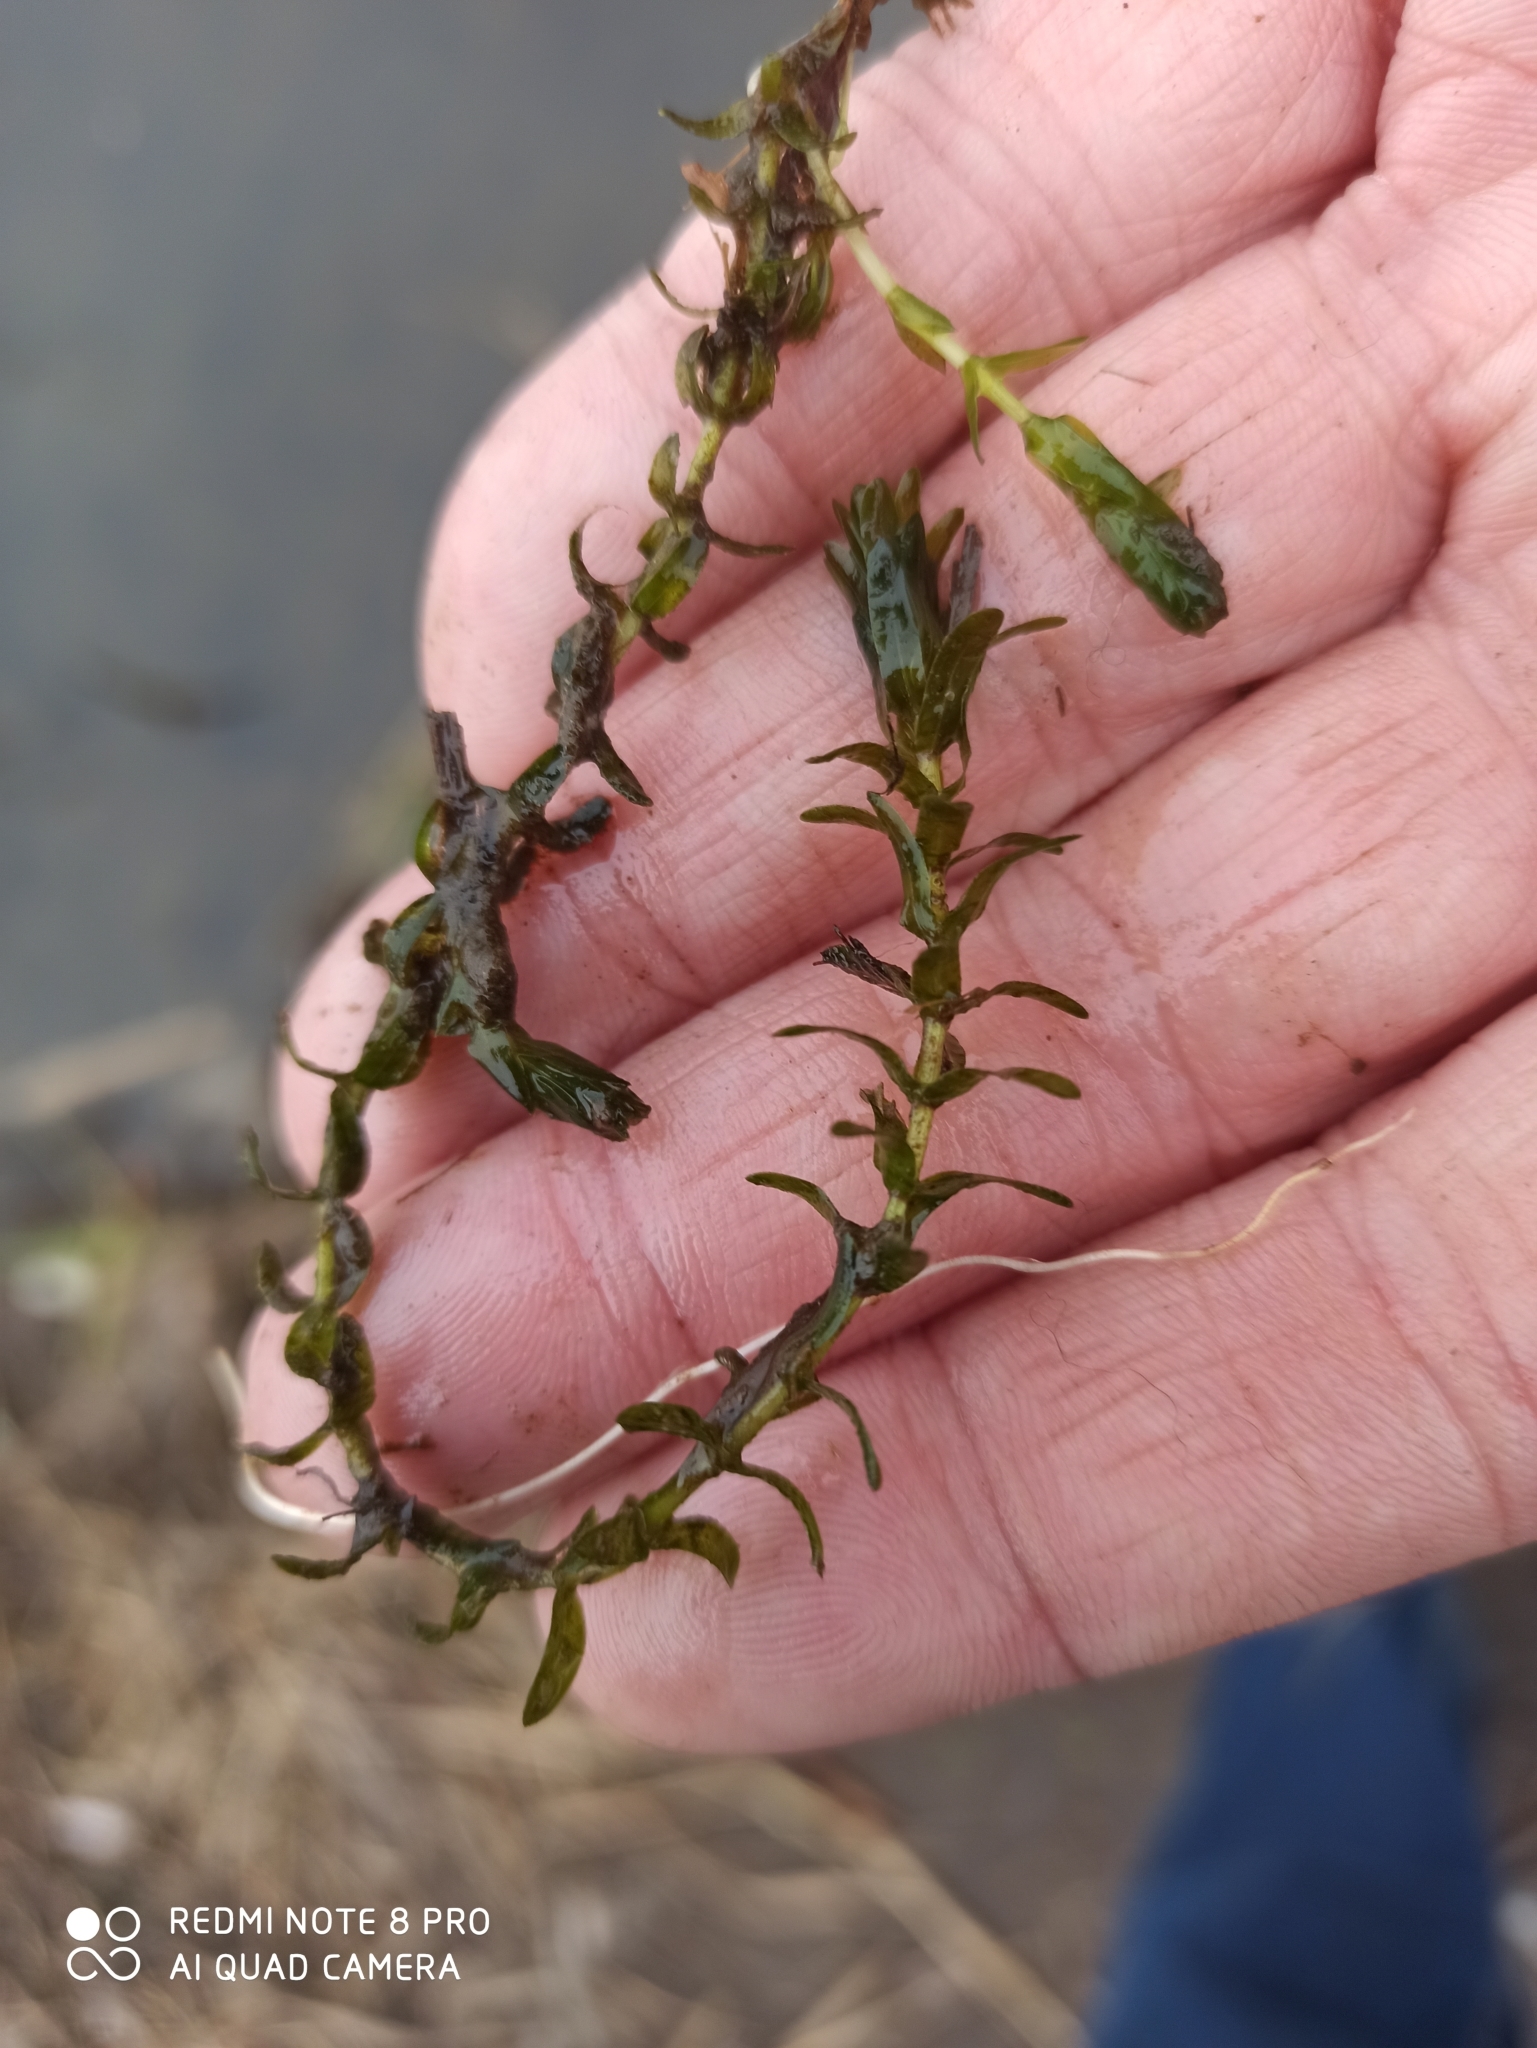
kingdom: Plantae
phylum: Tracheophyta
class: Liliopsida
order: Alismatales
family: Hydrocharitaceae
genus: Elodea
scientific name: Elodea canadensis
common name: Canadian waterweed
